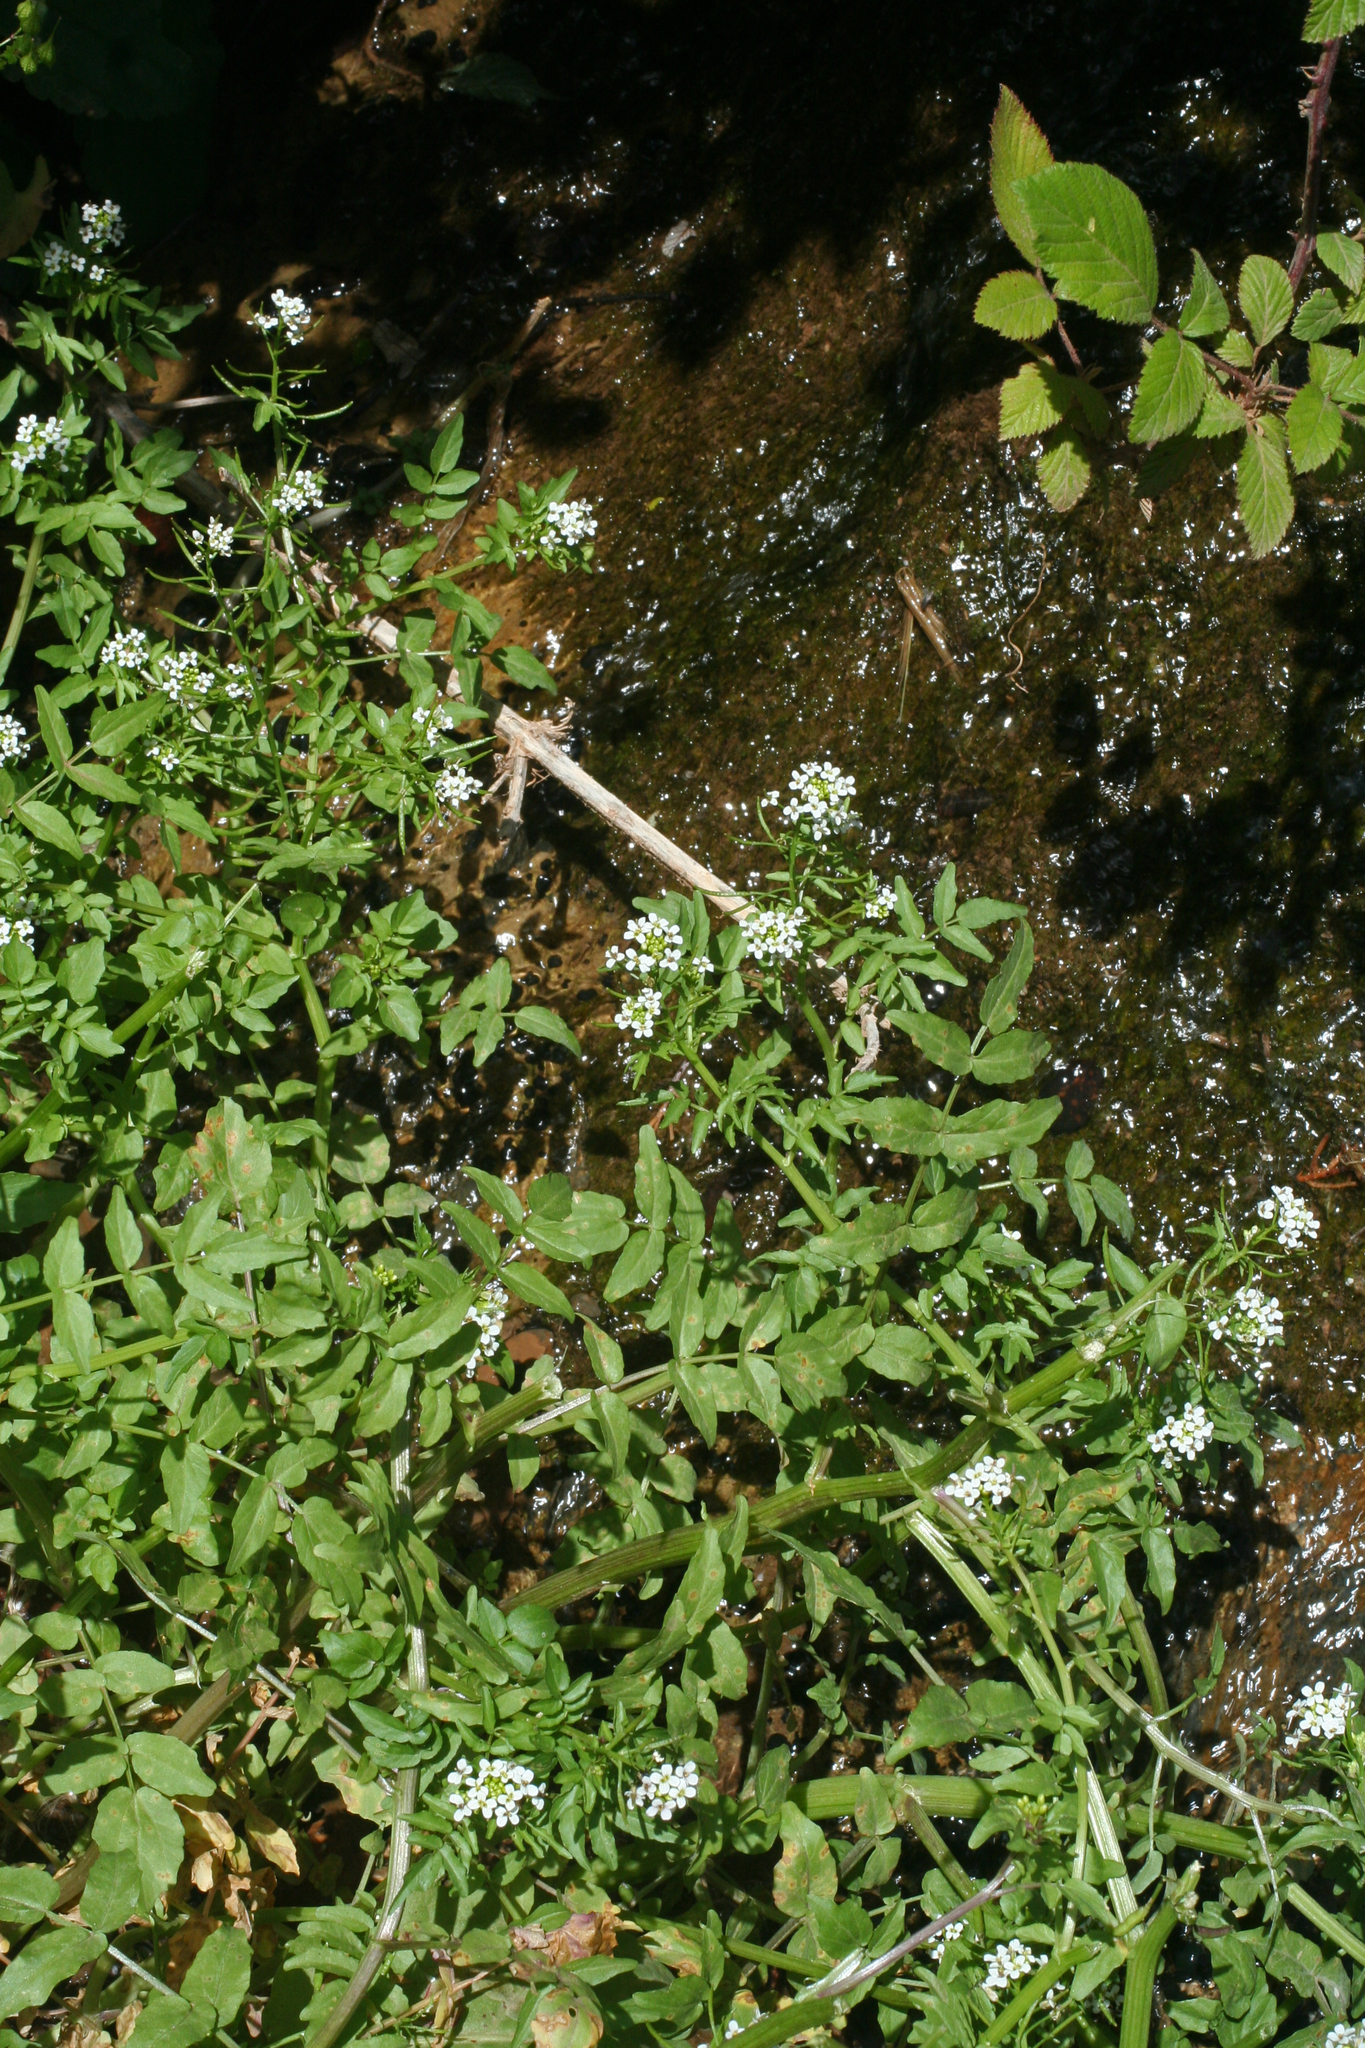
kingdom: Plantae
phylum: Tracheophyta
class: Magnoliopsida
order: Brassicales
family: Brassicaceae
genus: Nasturtium
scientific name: Nasturtium officinale
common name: Watercress
